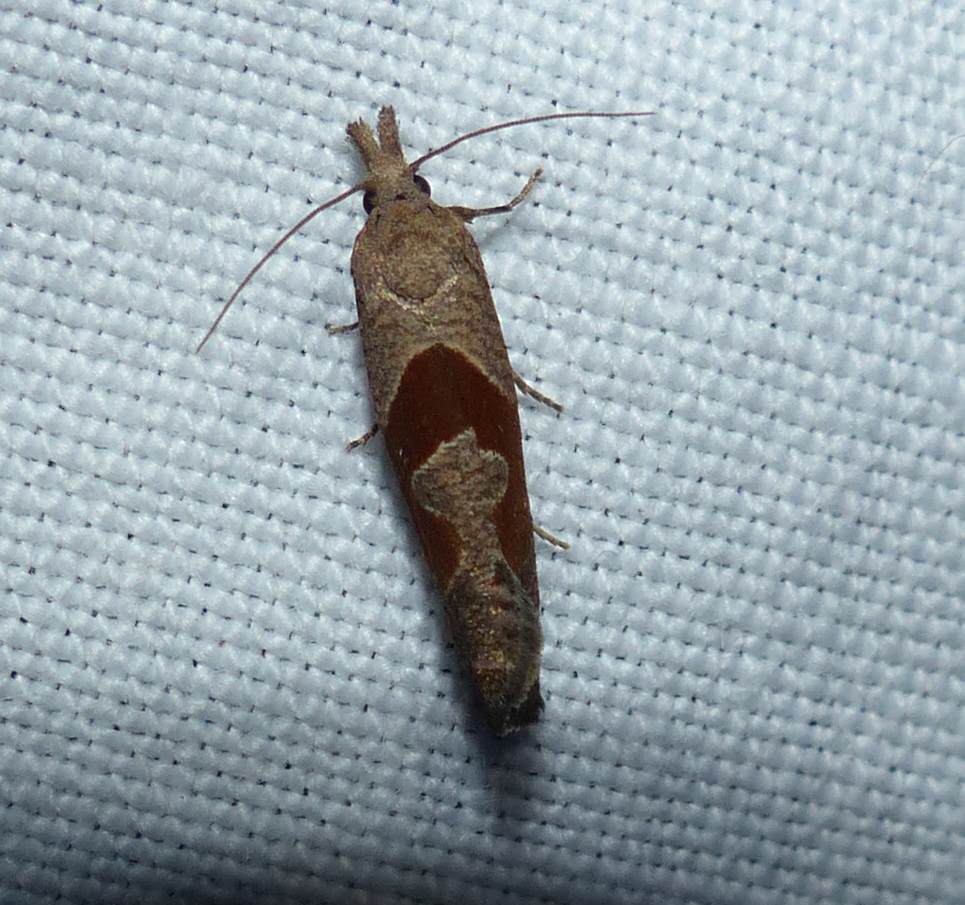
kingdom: Animalia
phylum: Arthropoda
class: Insecta
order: Lepidoptera
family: Tortricidae
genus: Pelochrista
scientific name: Pelochrista similiana
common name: Similar eucosma
